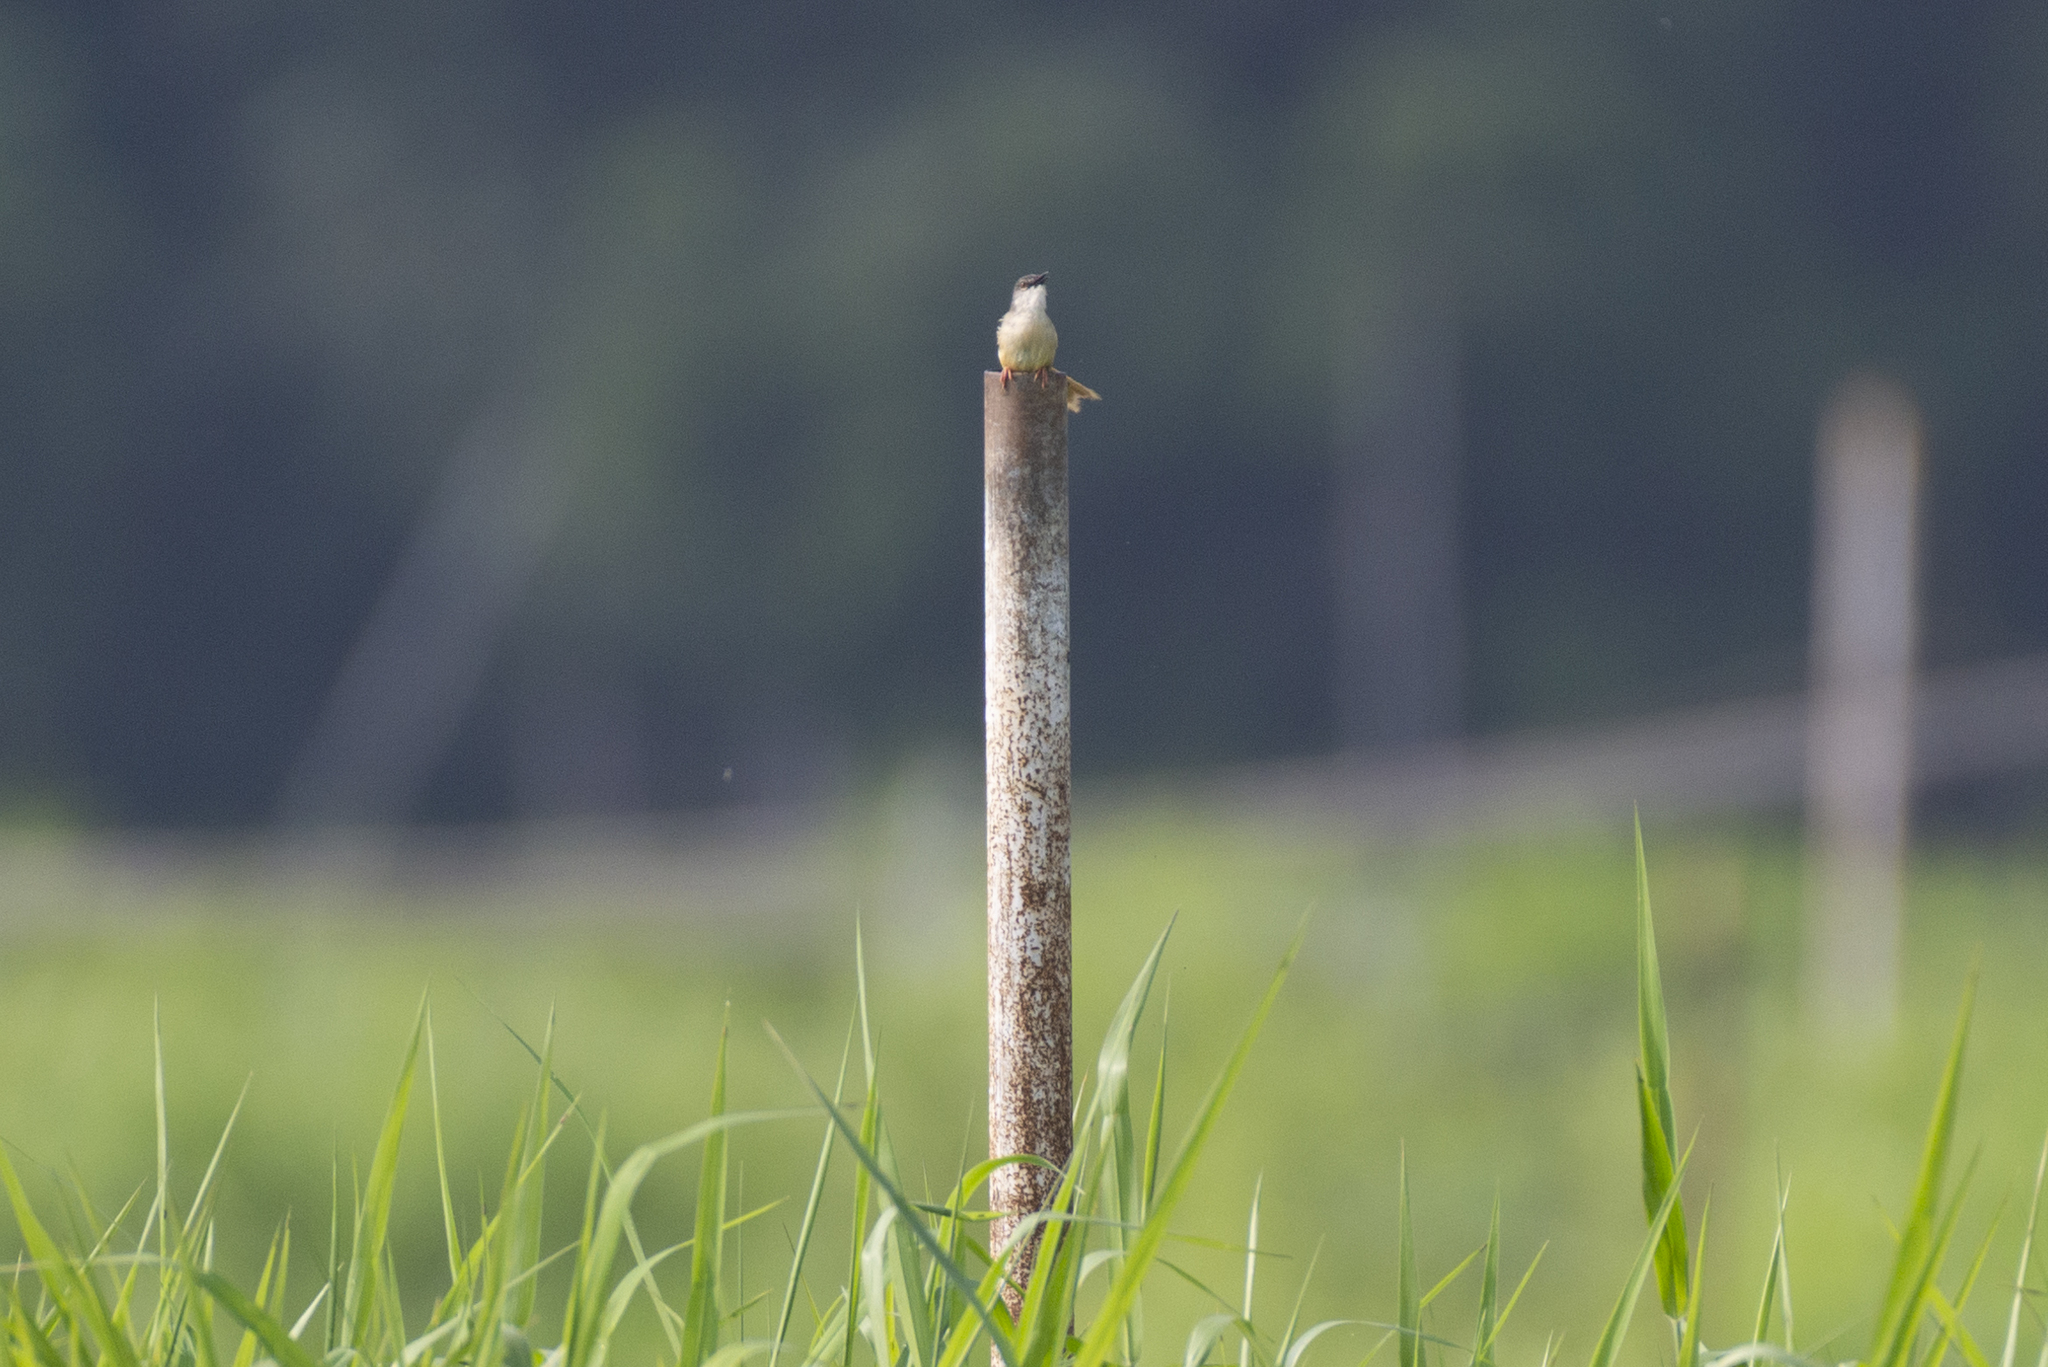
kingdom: Animalia
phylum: Chordata
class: Aves
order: Passeriformes
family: Cisticolidae
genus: Prinia
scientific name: Prinia flaviventris
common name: Yellow-bellied prinia
